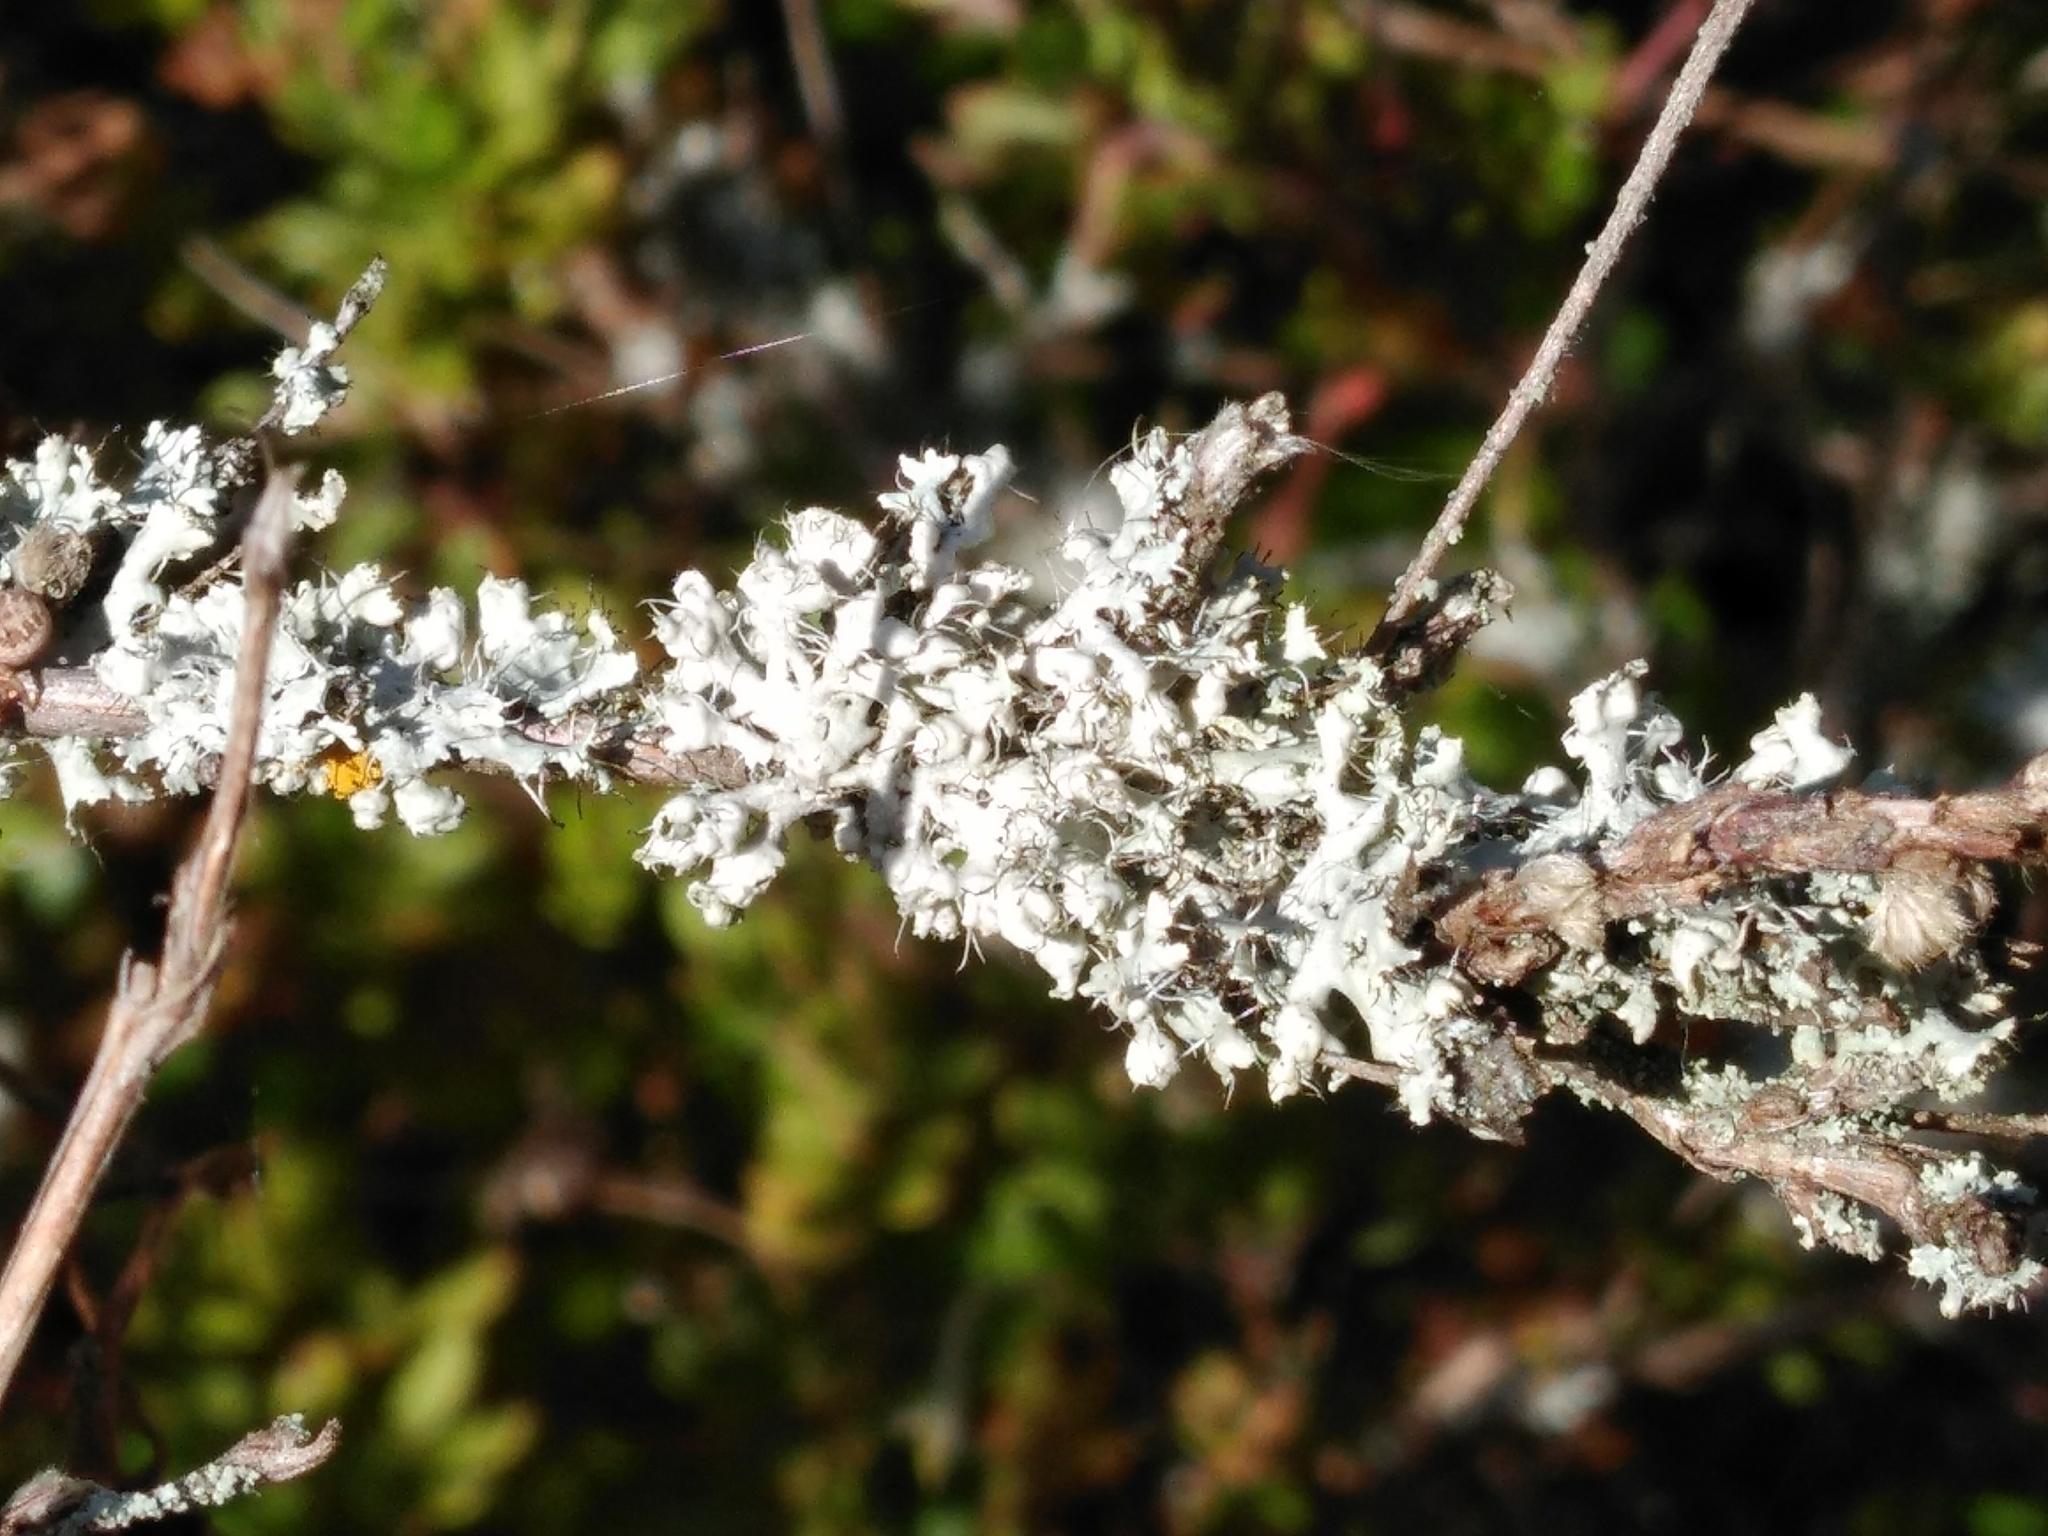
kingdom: Fungi
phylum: Ascomycota
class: Lecanoromycetes
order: Caliciales
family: Physciaceae
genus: Physcia
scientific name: Physcia adscendens
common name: Hooded rosette lichen
